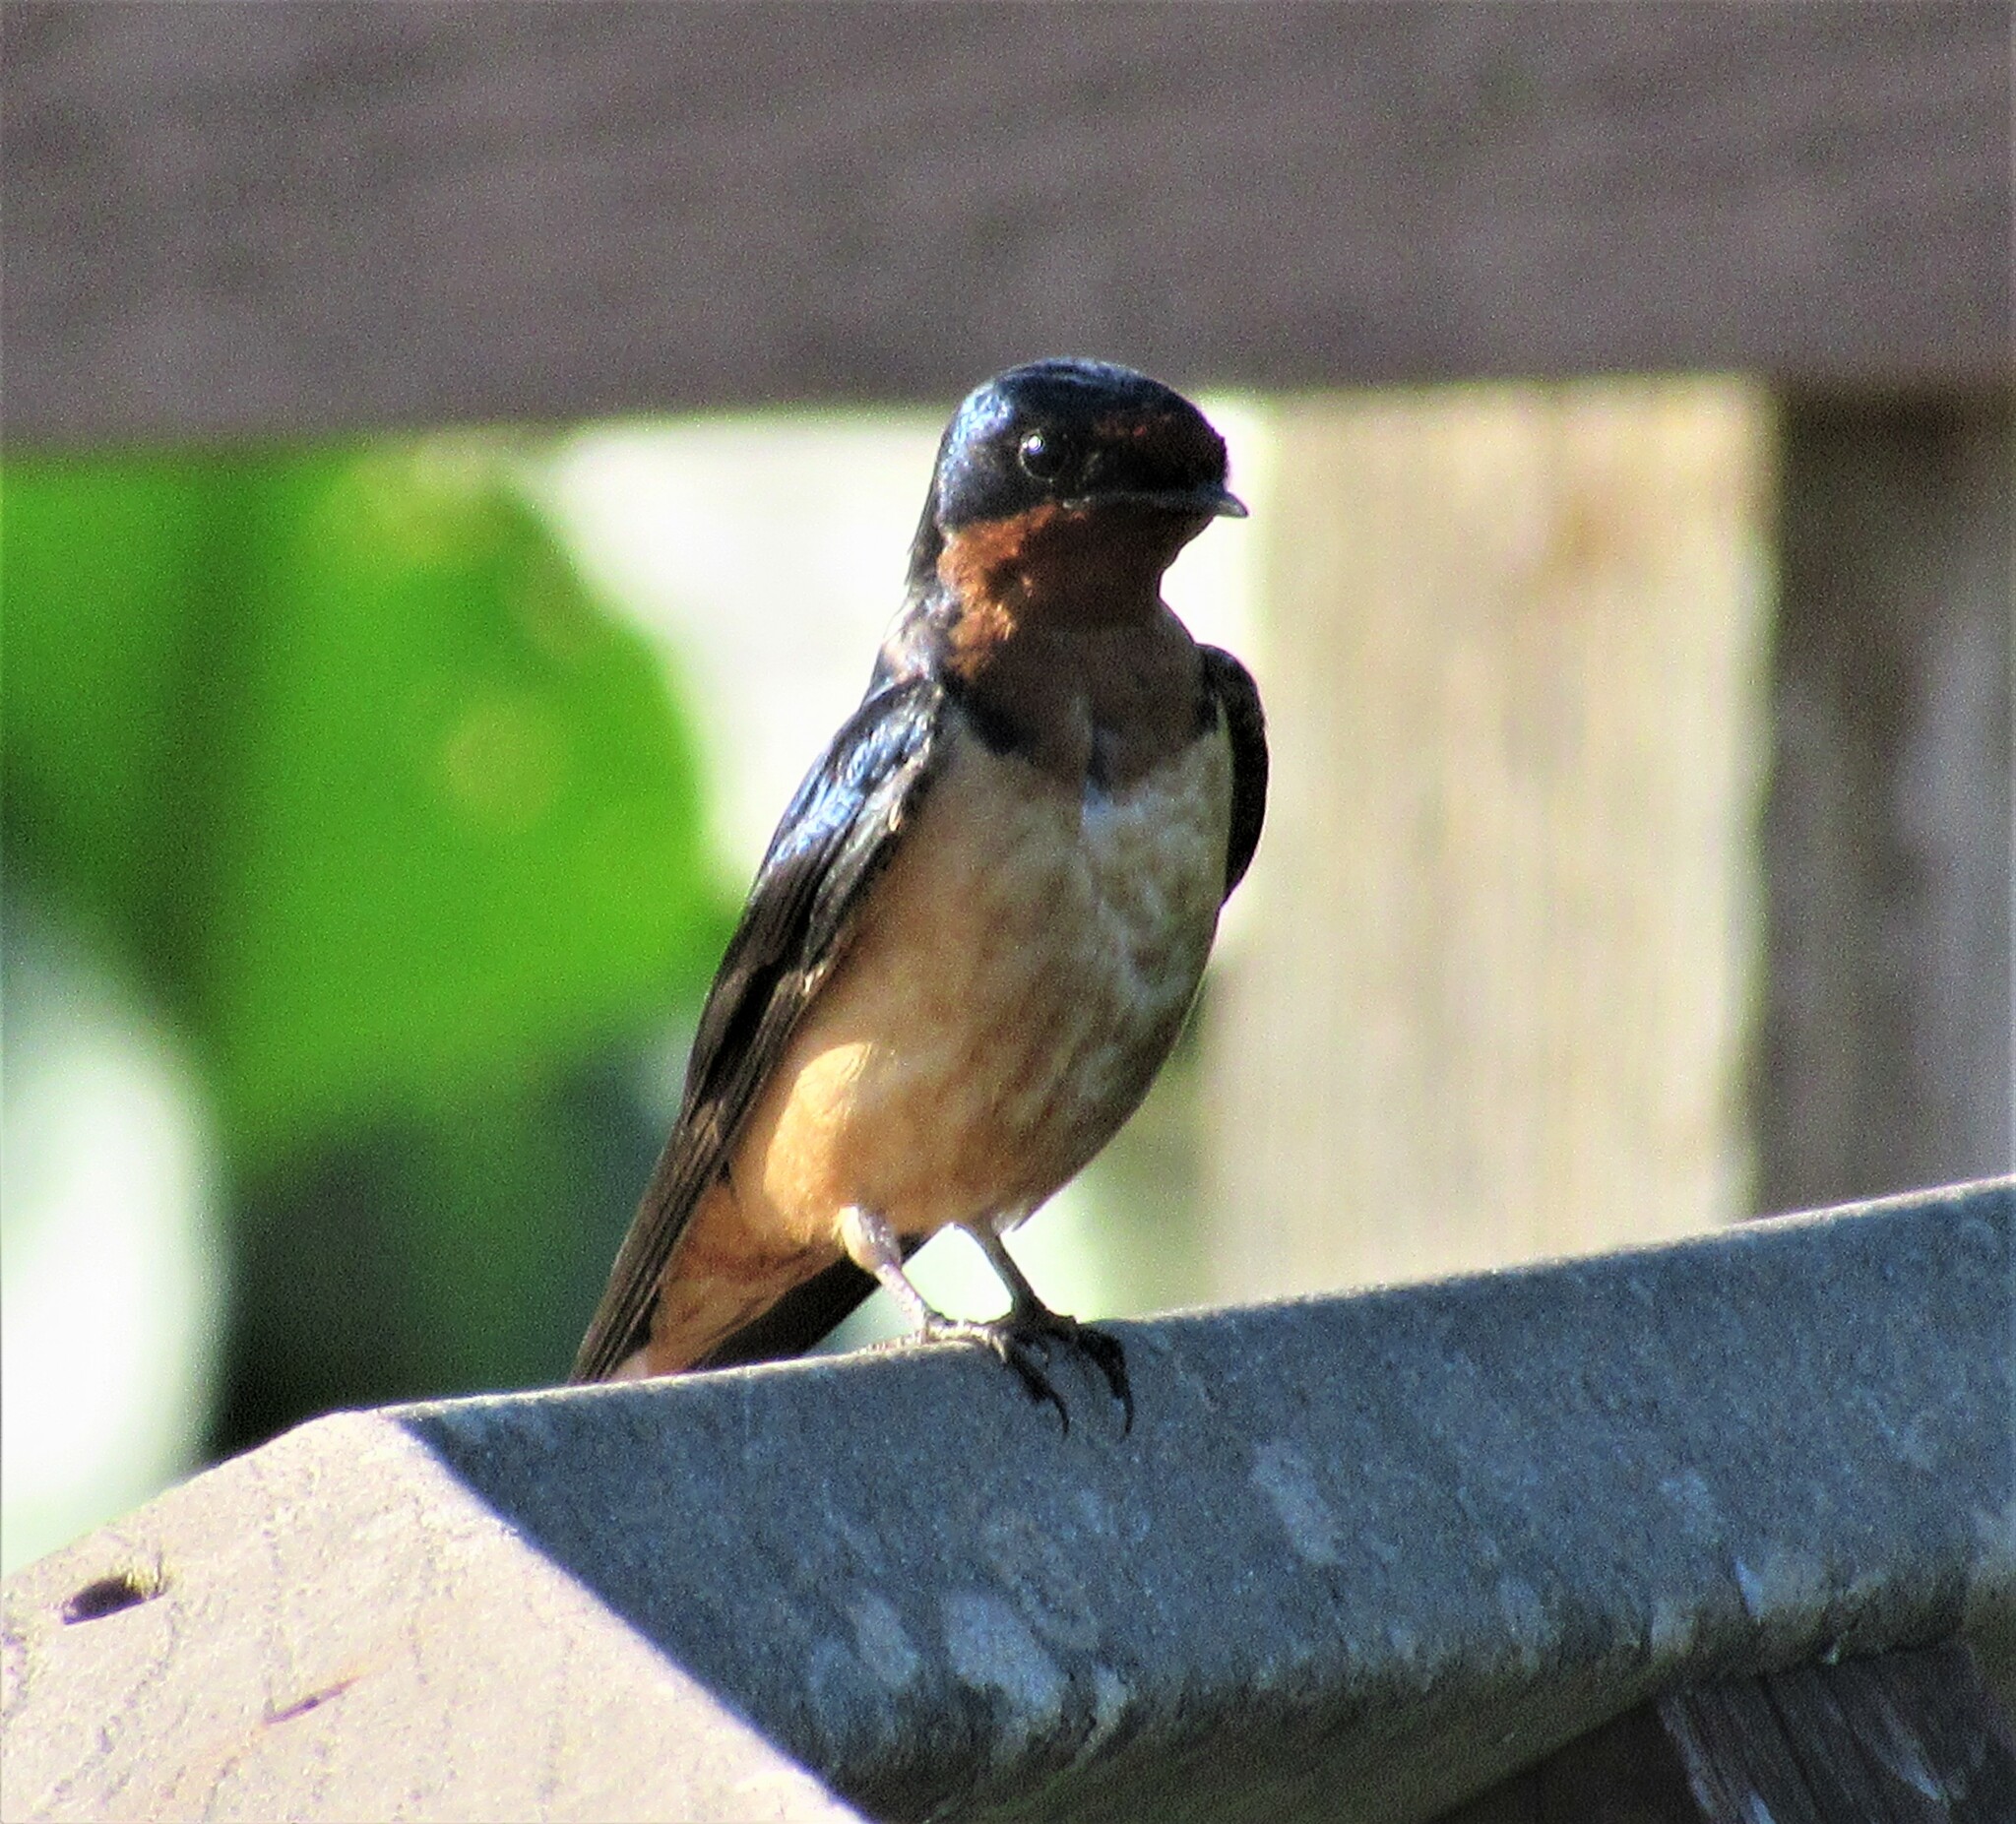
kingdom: Animalia
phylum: Chordata
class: Aves
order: Passeriformes
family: Hirundinidae
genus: Hirundo
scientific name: Hirundo rustica
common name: Barn swallow
